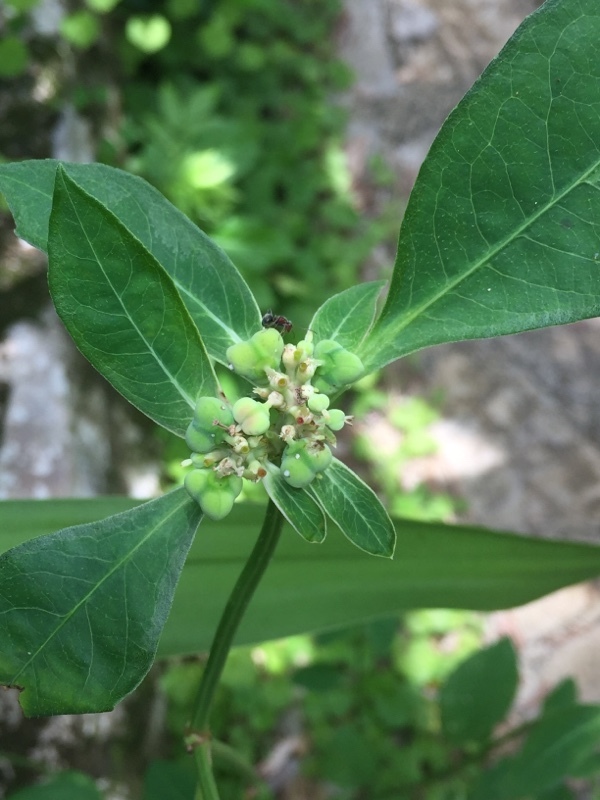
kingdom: Plantae
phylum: Tracheophyta
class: Magnoliopsida
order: Malpighiales
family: Euphorbiaceae
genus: Euphorbia
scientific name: Euphorbia heterophylla
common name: Mexican fireplant
